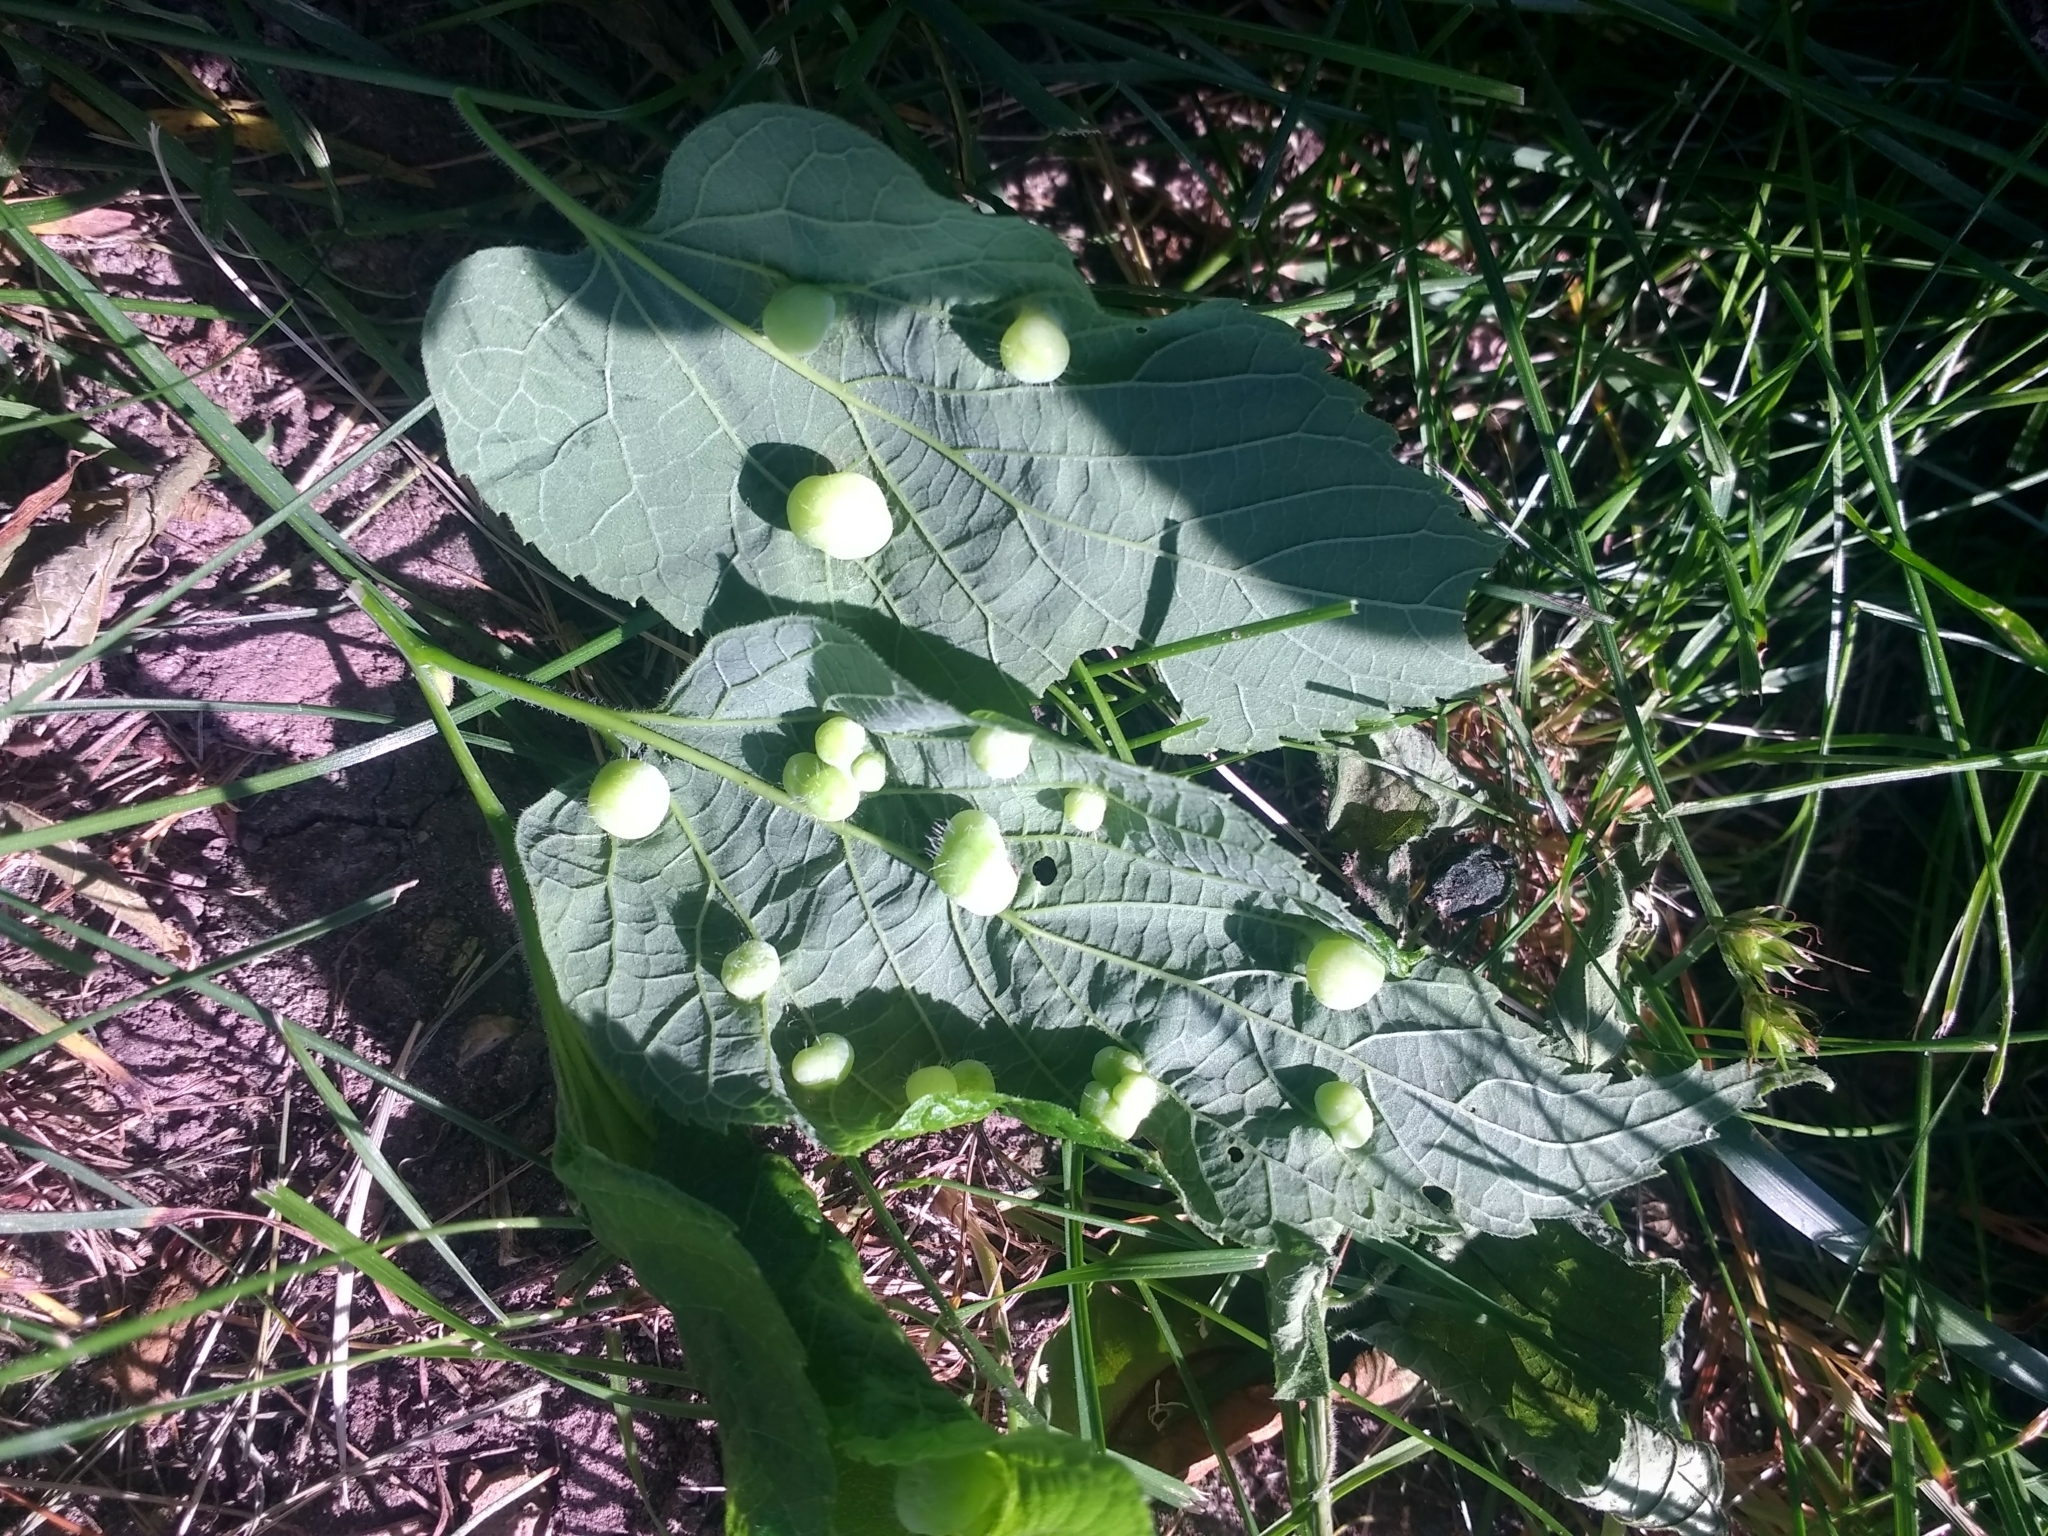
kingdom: Animalia
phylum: Arthropoda
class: Insecta
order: Hemiptera
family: Aphalaridae
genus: Pachypsylla
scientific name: Pachypsylla celtidismamma
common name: Hackberry nipplegall psyllid
